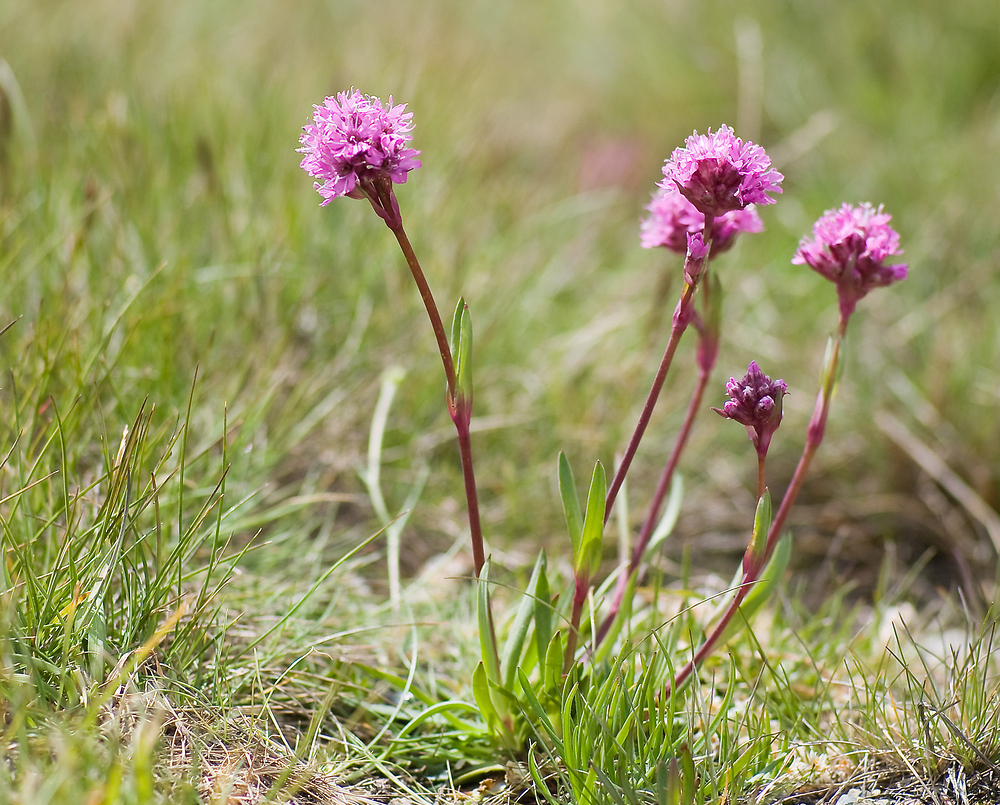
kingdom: Plantae
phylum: Tracheophyta
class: Magnoliopsida
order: Caryophyllales
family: Caryophyllaceae
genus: Viscaria
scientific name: Viscaria alpina
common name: Alpine campion
